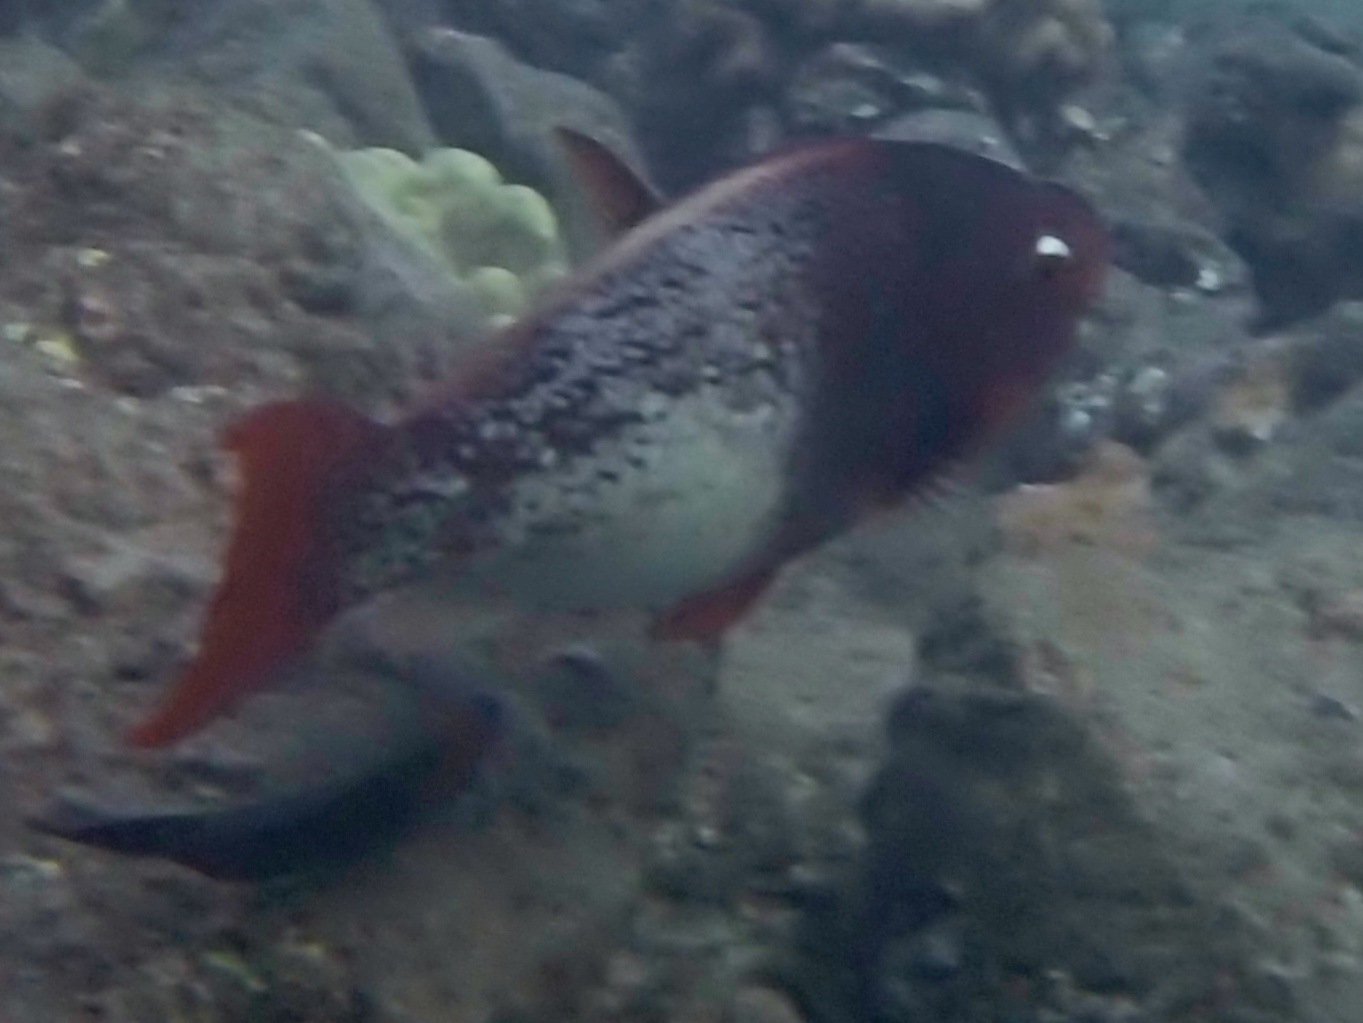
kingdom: Animalia
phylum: Chordata
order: Perciformes
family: Scaridae
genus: Scarus
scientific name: Scarus rubroviolaceus
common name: Ember parrotfish
